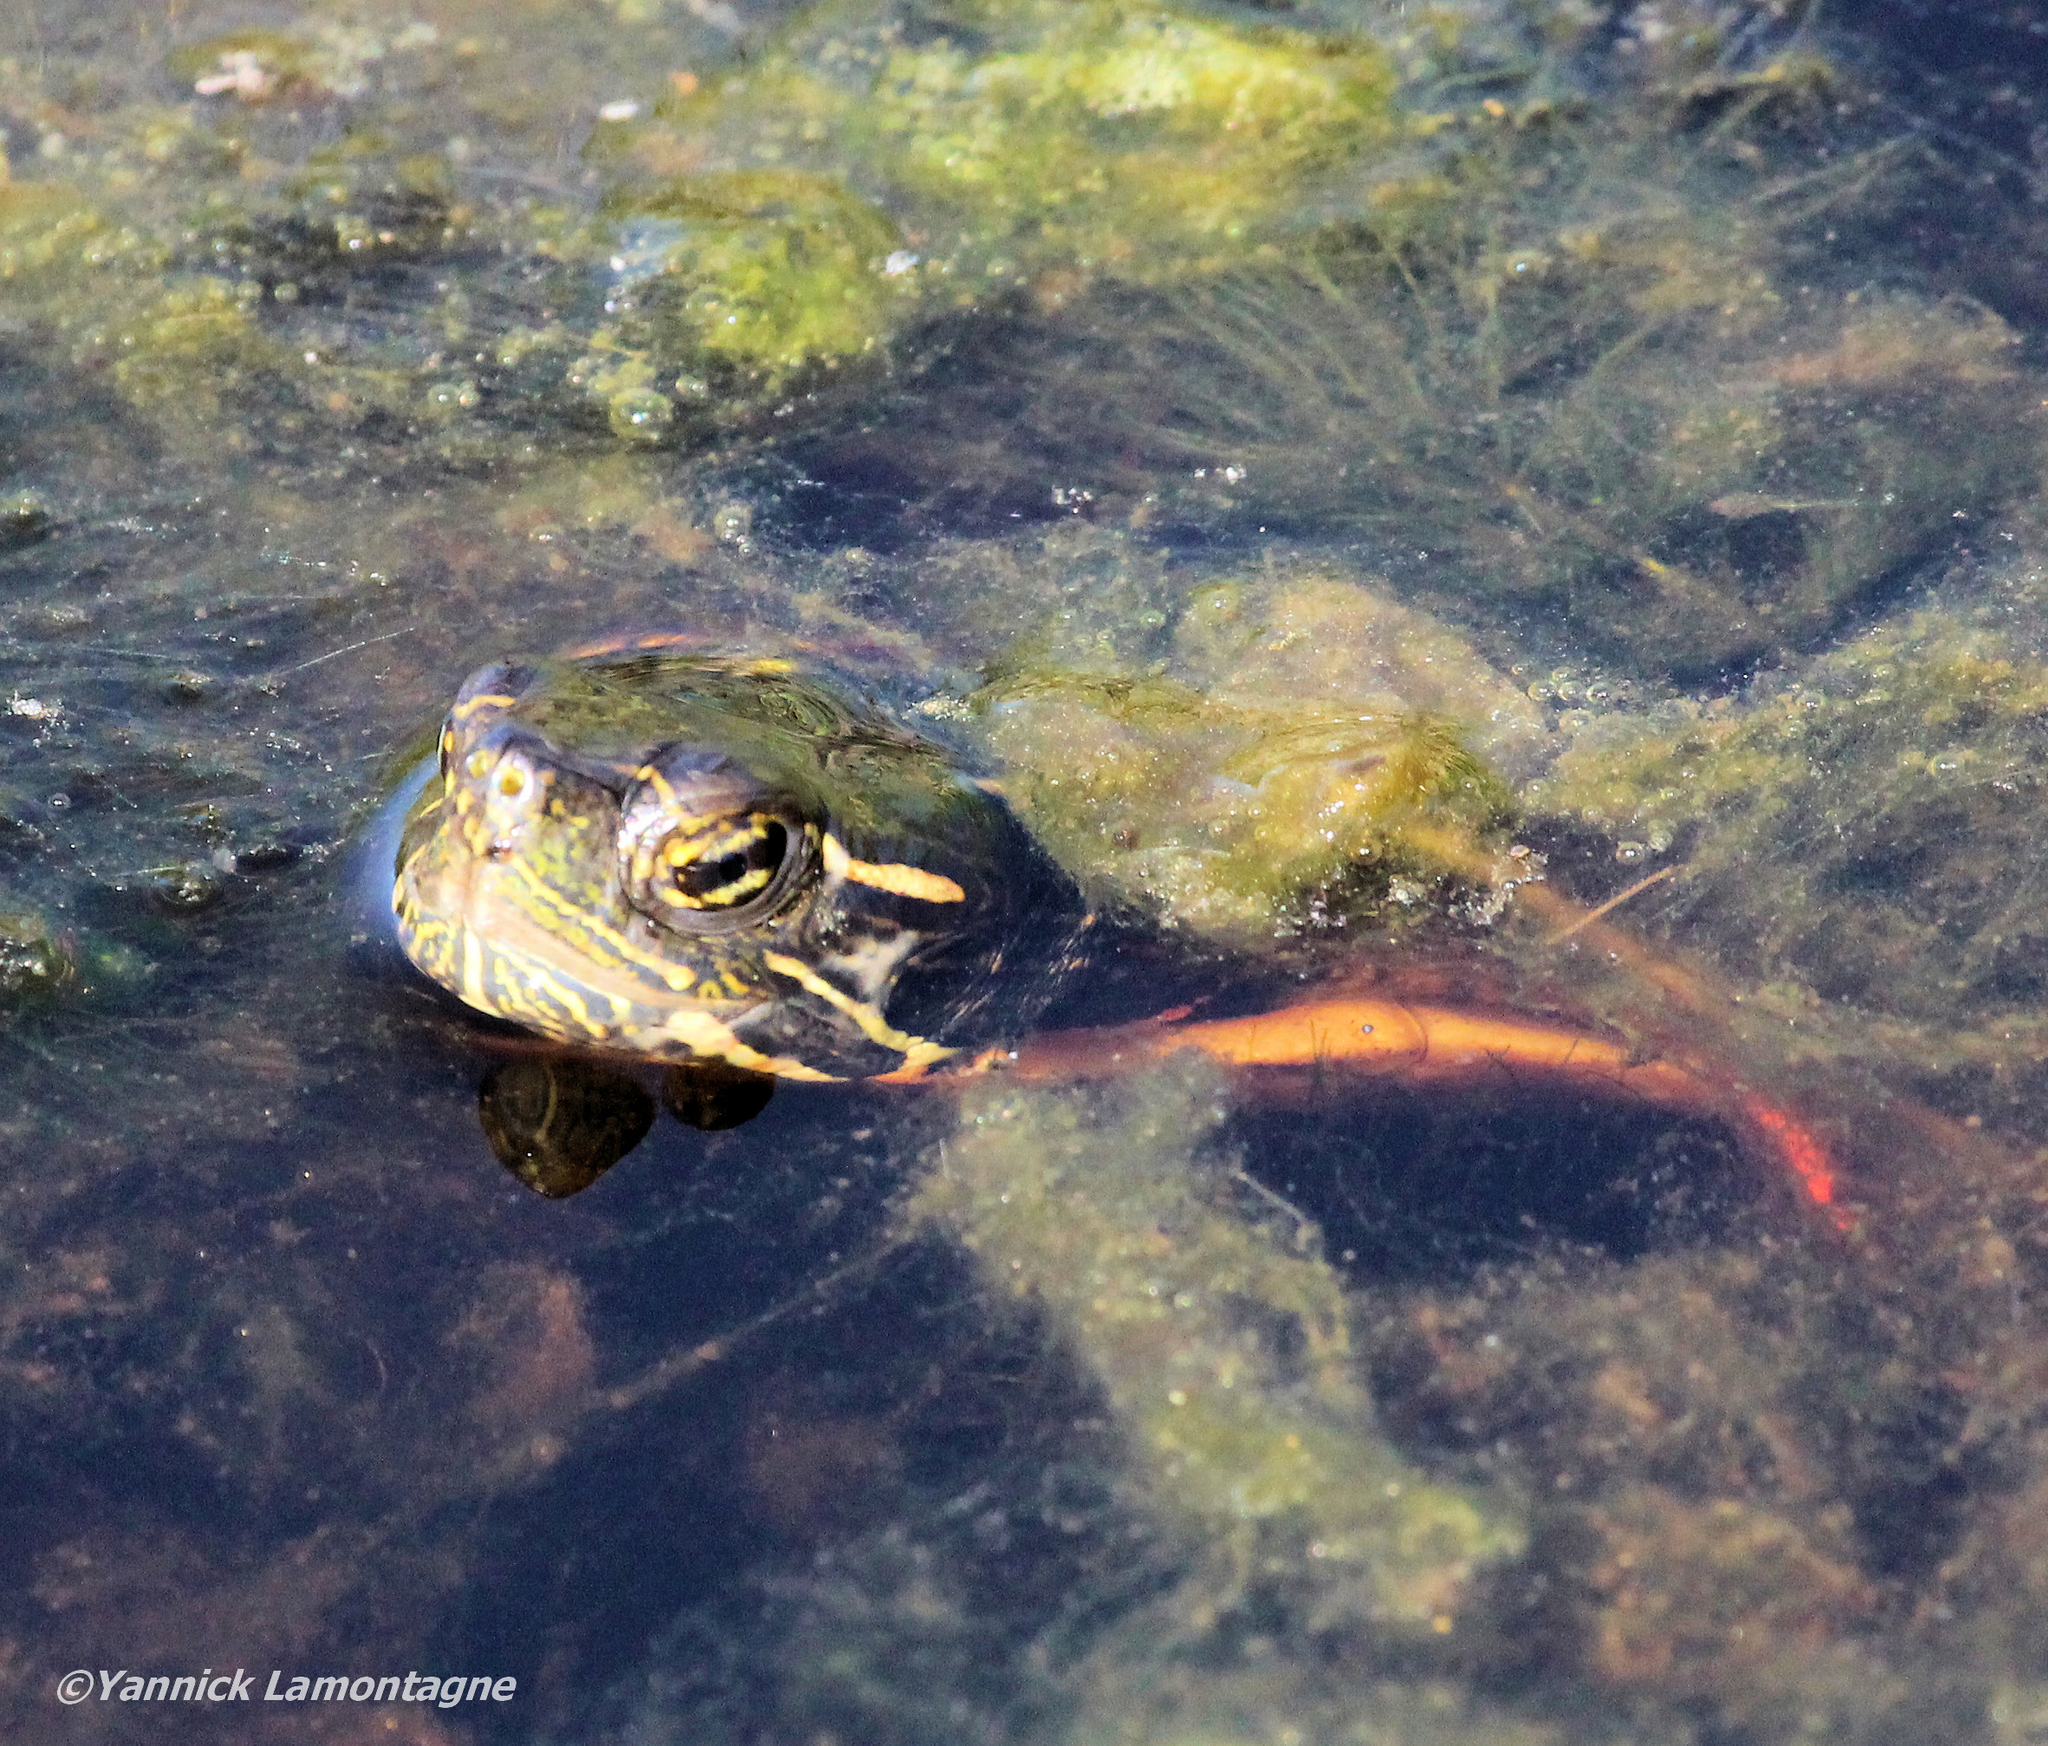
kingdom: Animalia
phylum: Chordata
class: Testudines
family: Emydidae
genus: Chrysemys
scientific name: Chrysemys picta
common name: Painted turtle
